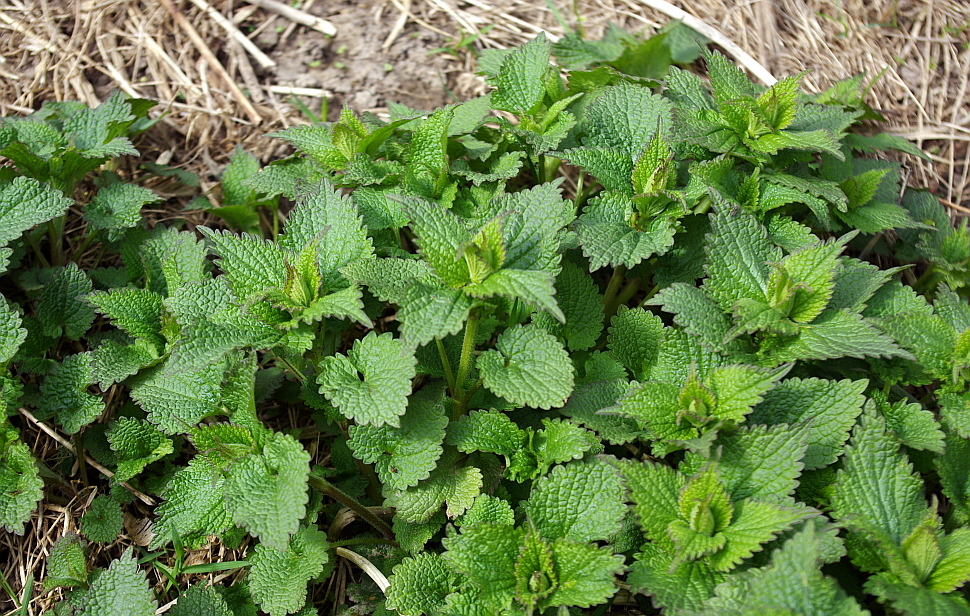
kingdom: Plantae
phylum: Tracheophyta
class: Magnoliopsida
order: Lamiales
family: Lamiaceae
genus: Lamium
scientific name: Lamium album
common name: White dead-nettle
